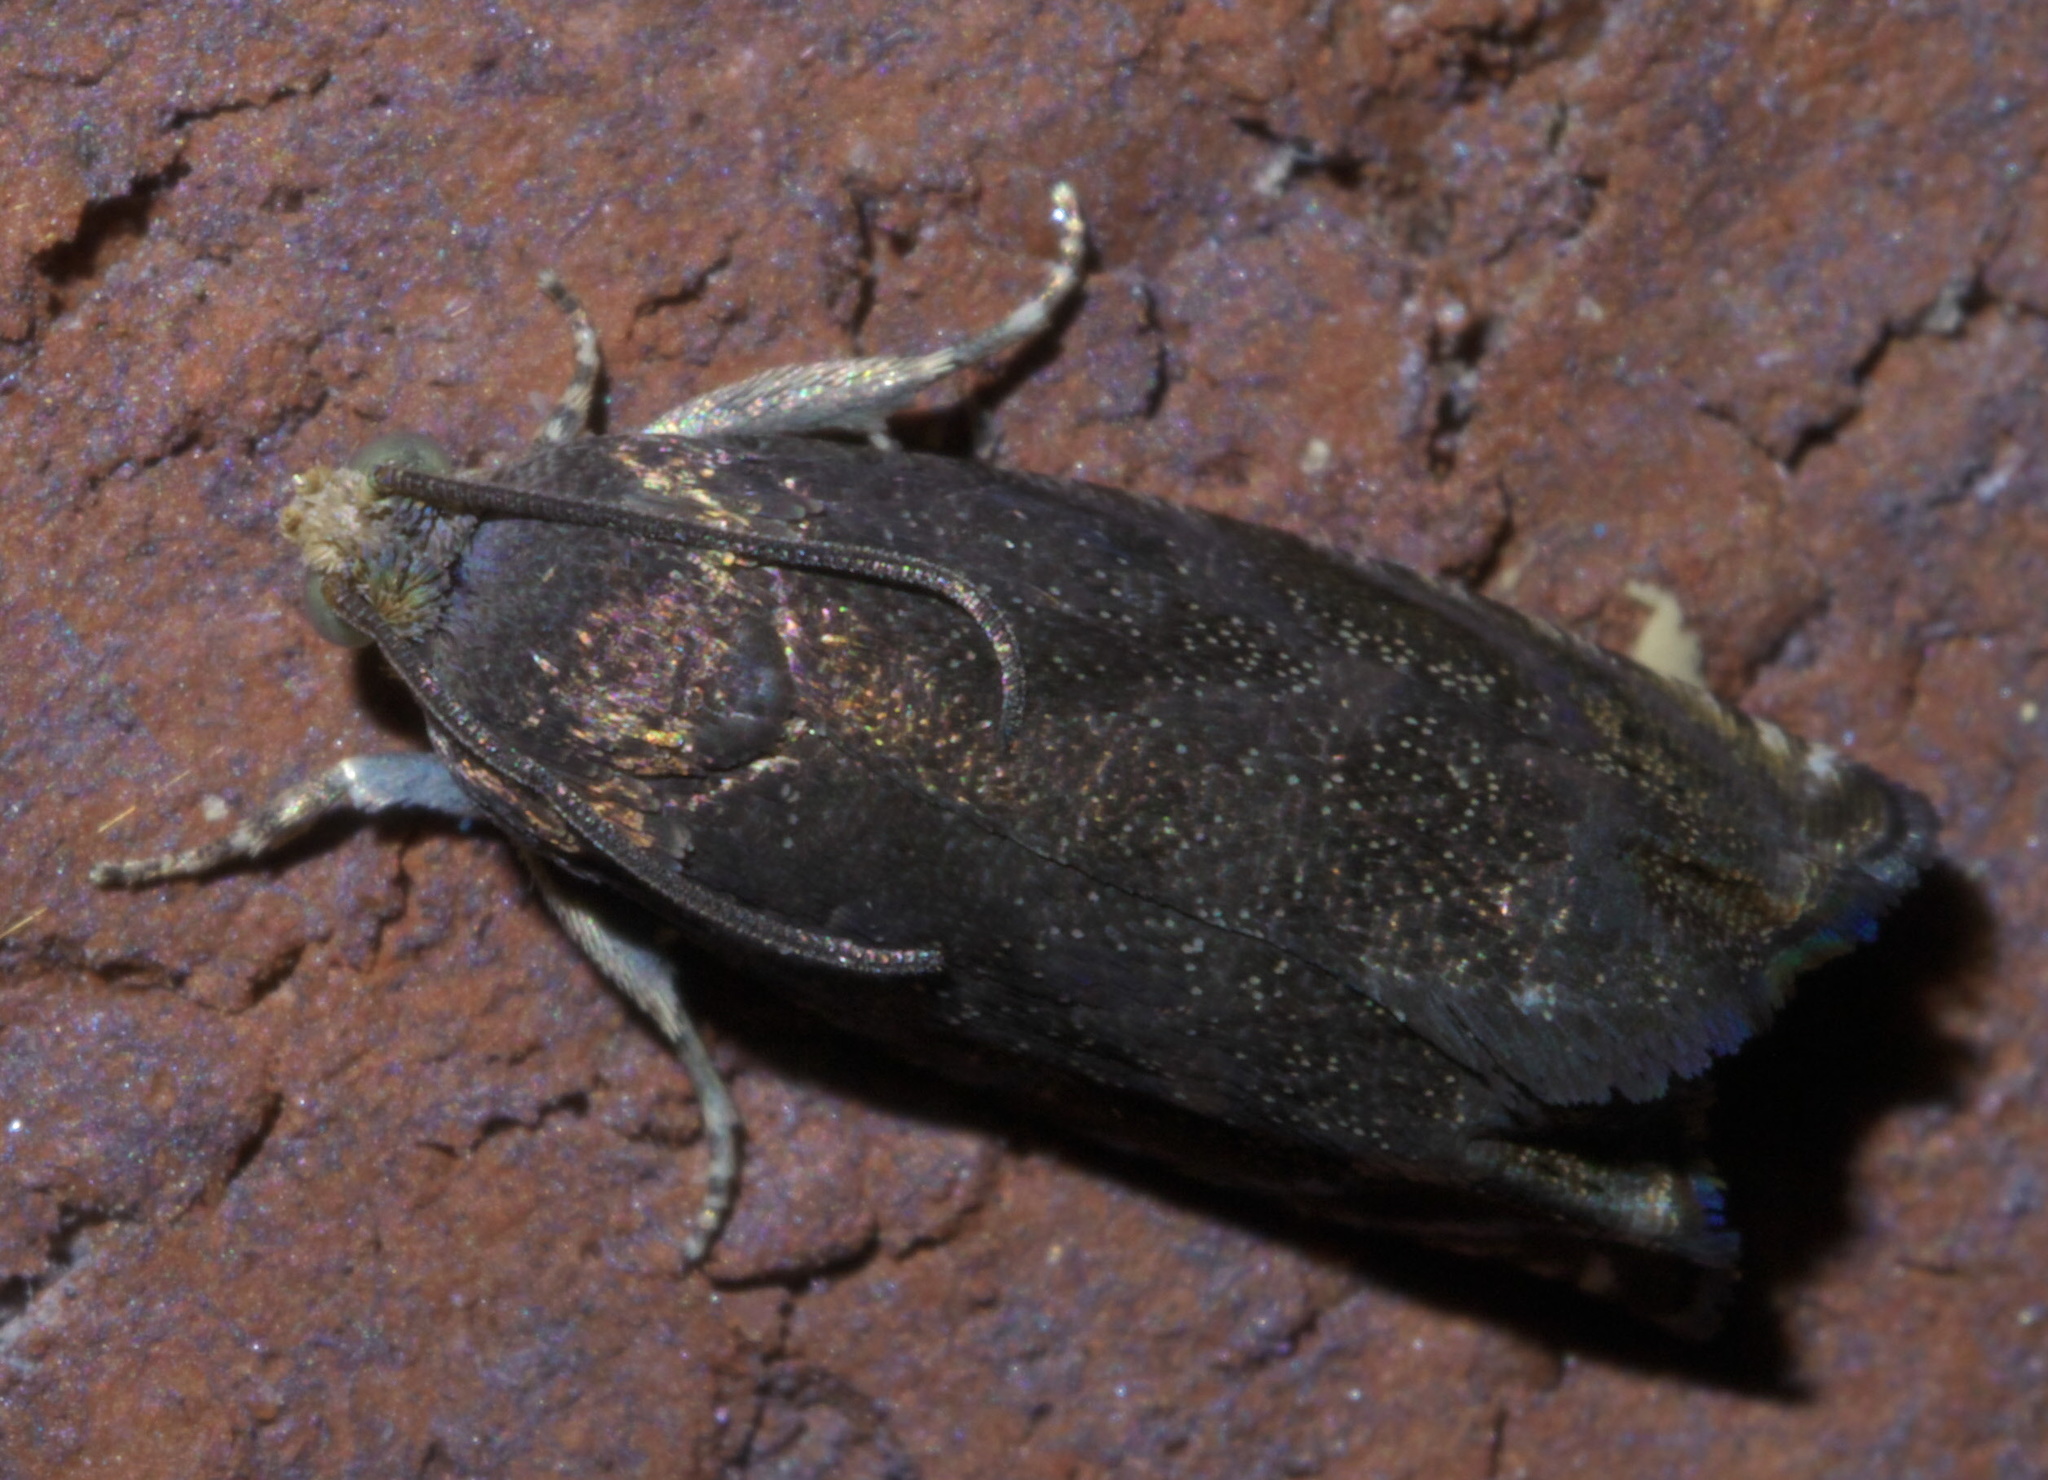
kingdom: Animalia
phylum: Arthropoda
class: Insecta
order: Lepidoptera
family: Tortricidae
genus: Cydia
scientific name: Cydia caryana
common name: Hickory shuckworm moth
